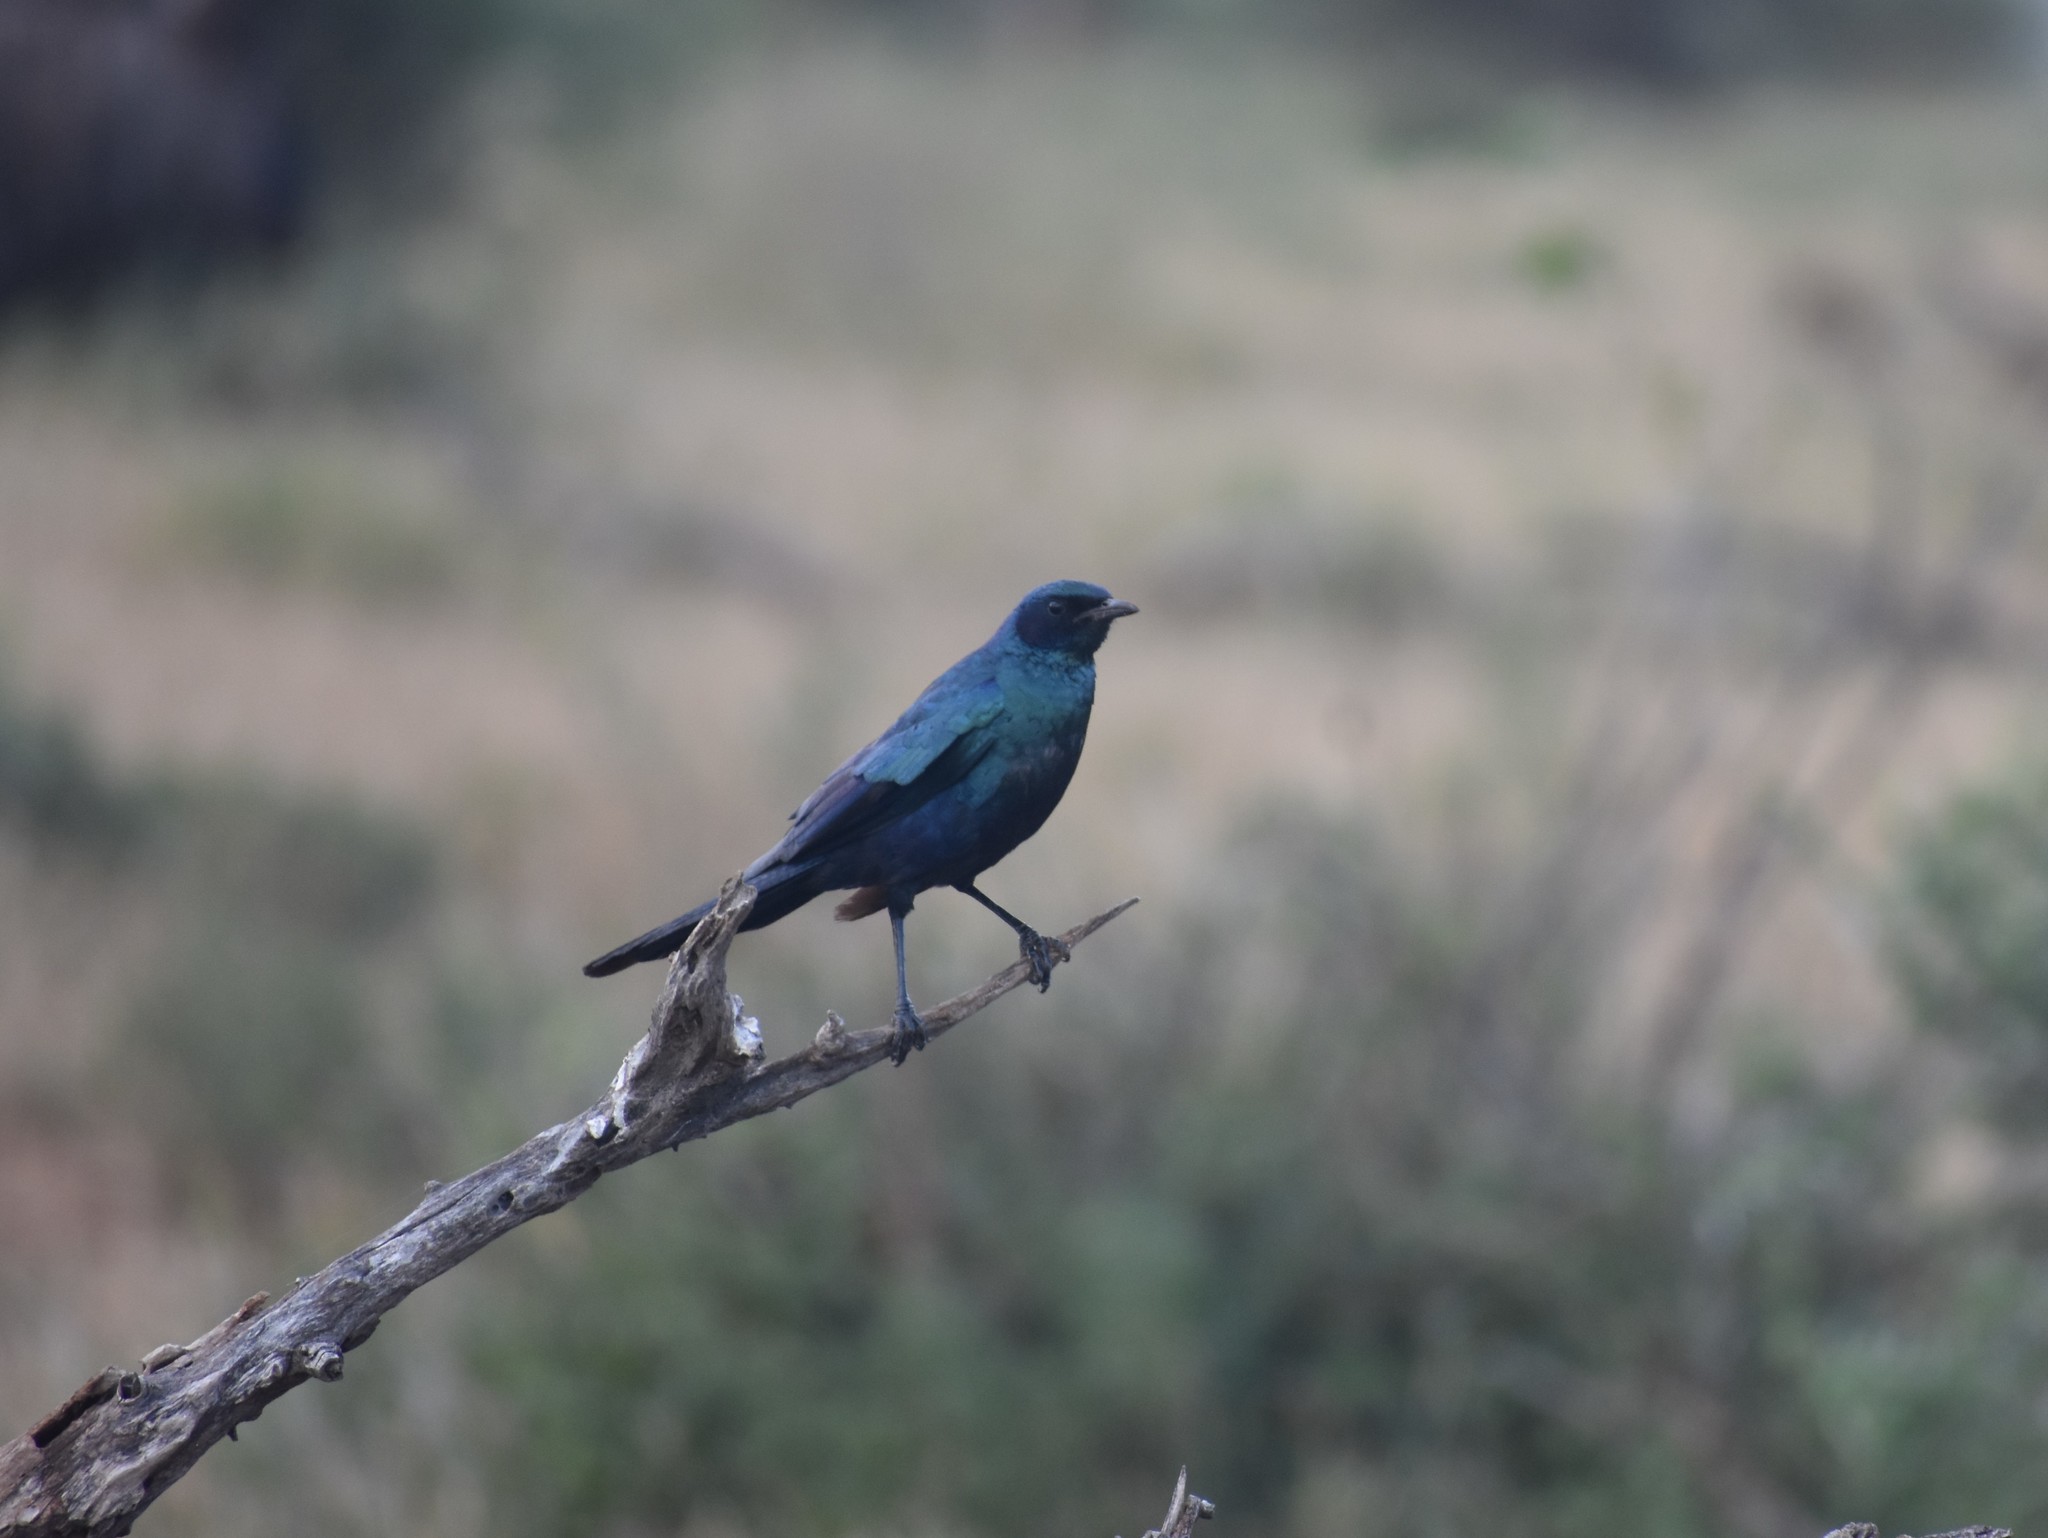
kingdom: Animalia
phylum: Chordata
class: Aves
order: Passeriformes
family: Sturnidae
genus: Lamprotornis
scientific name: Lamprotornis australis
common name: Burchell's starling
